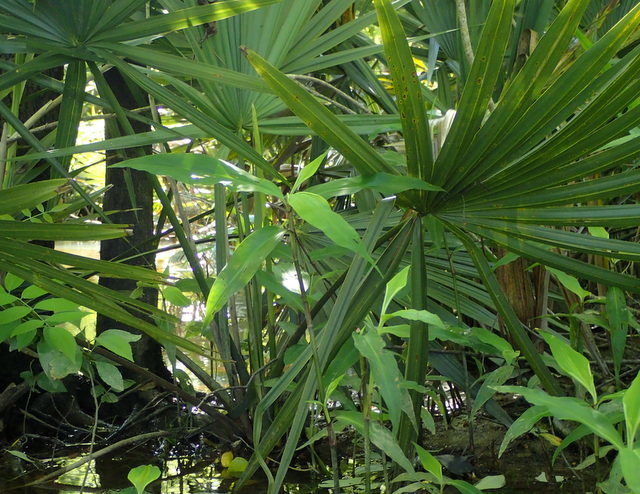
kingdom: Plantae
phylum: Tracheophyta
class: Liliopsida
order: Arecales
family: Arecaceae
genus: Sabal
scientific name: Sabal minor
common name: Dwarf palmetto
